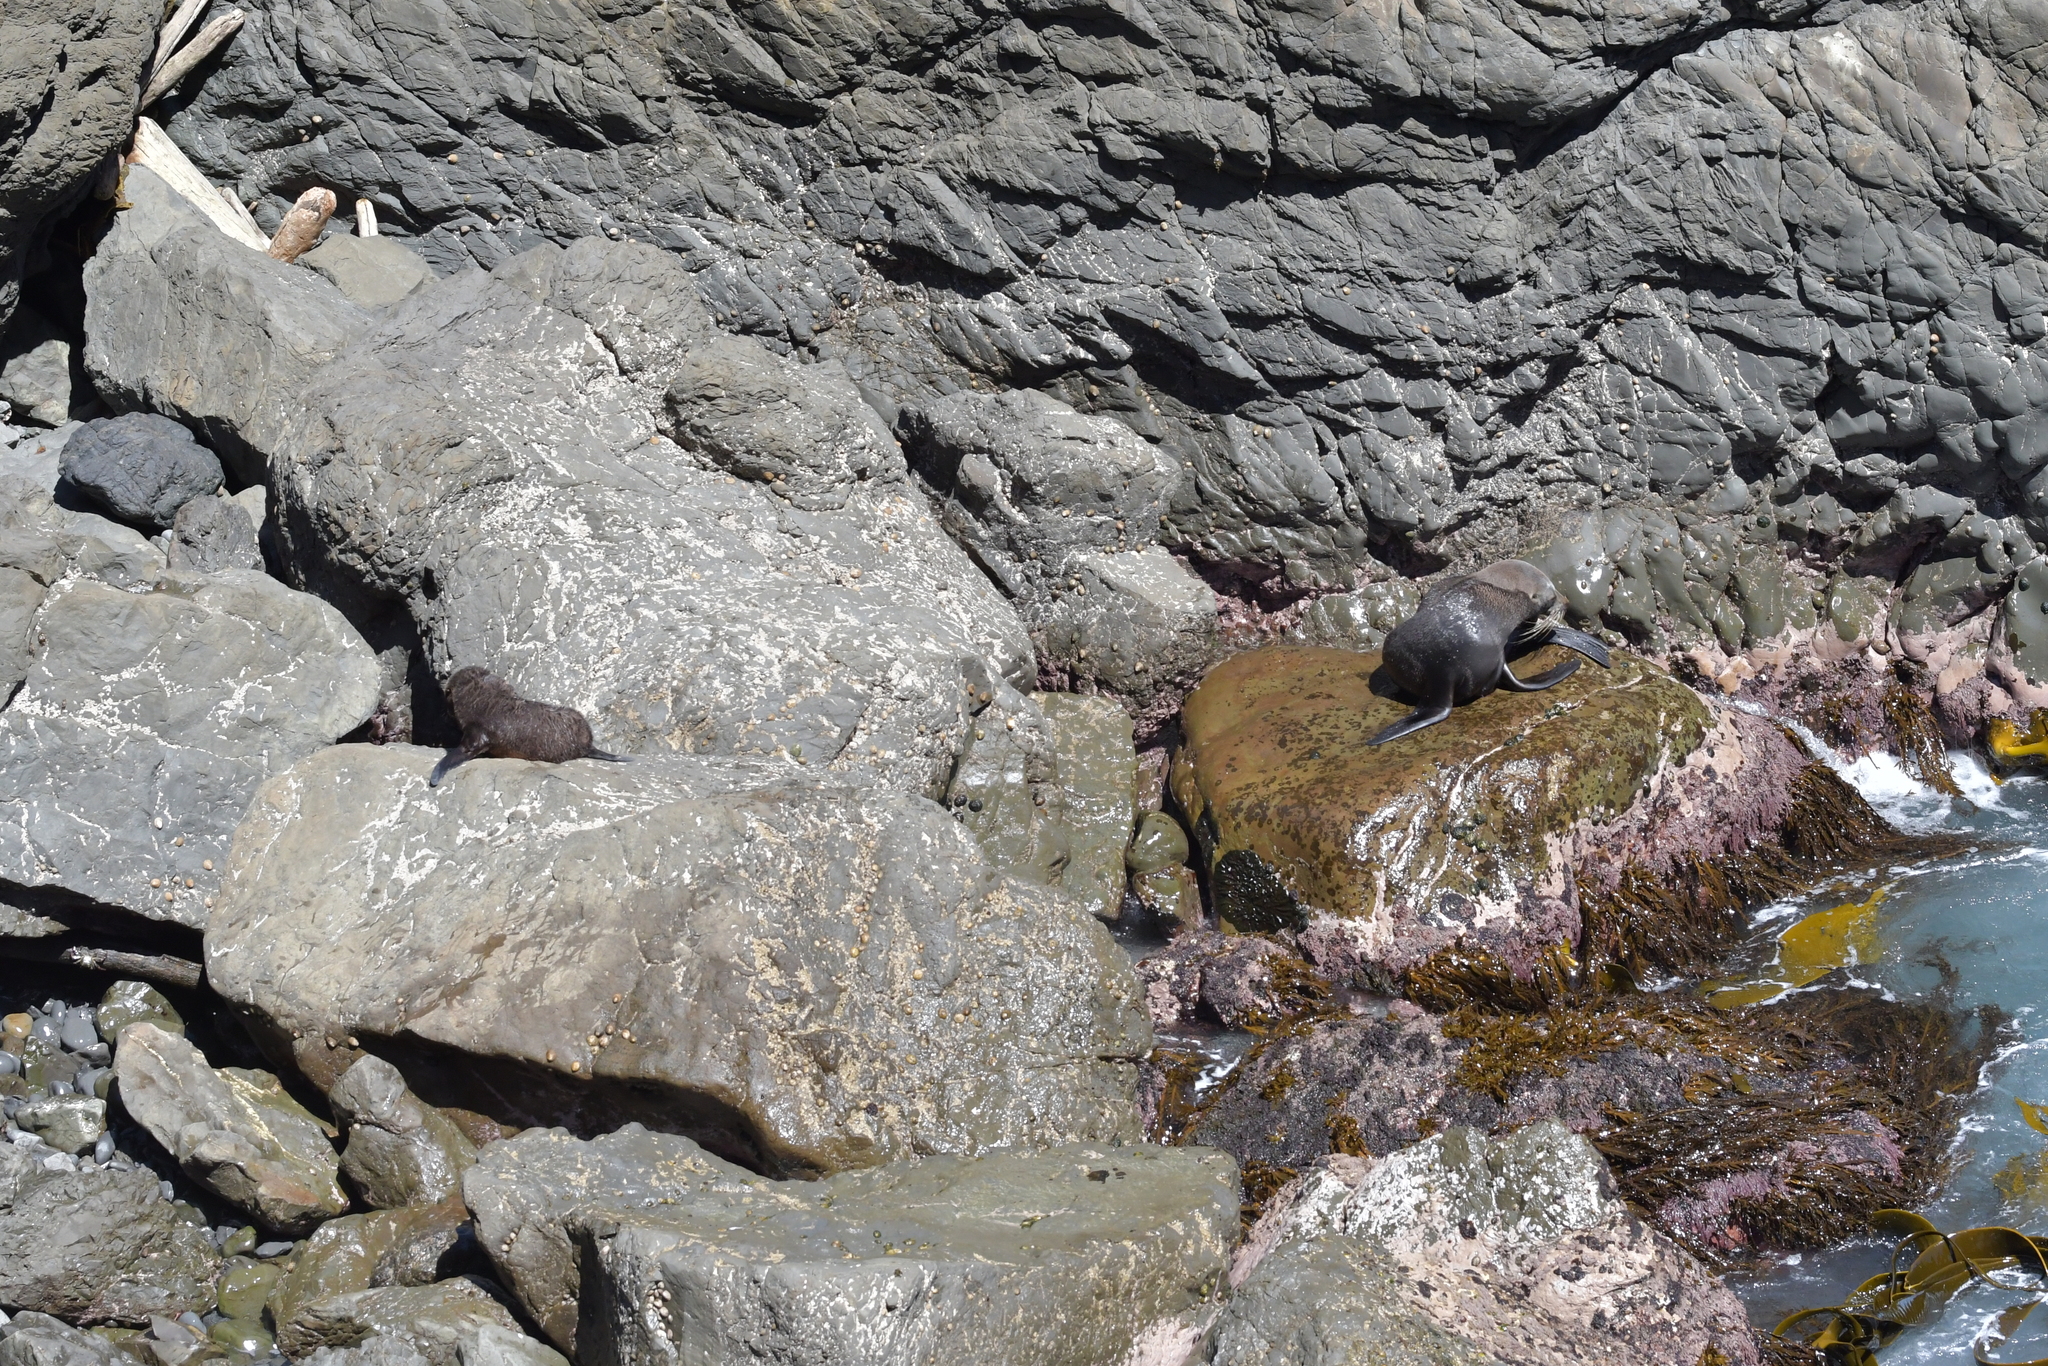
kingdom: Animalia
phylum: Chordata
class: Mammalia
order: Carnivora
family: Otariidae
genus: Arctocephalus
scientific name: Arctocephalus forsteri
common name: New zealand fur seal
